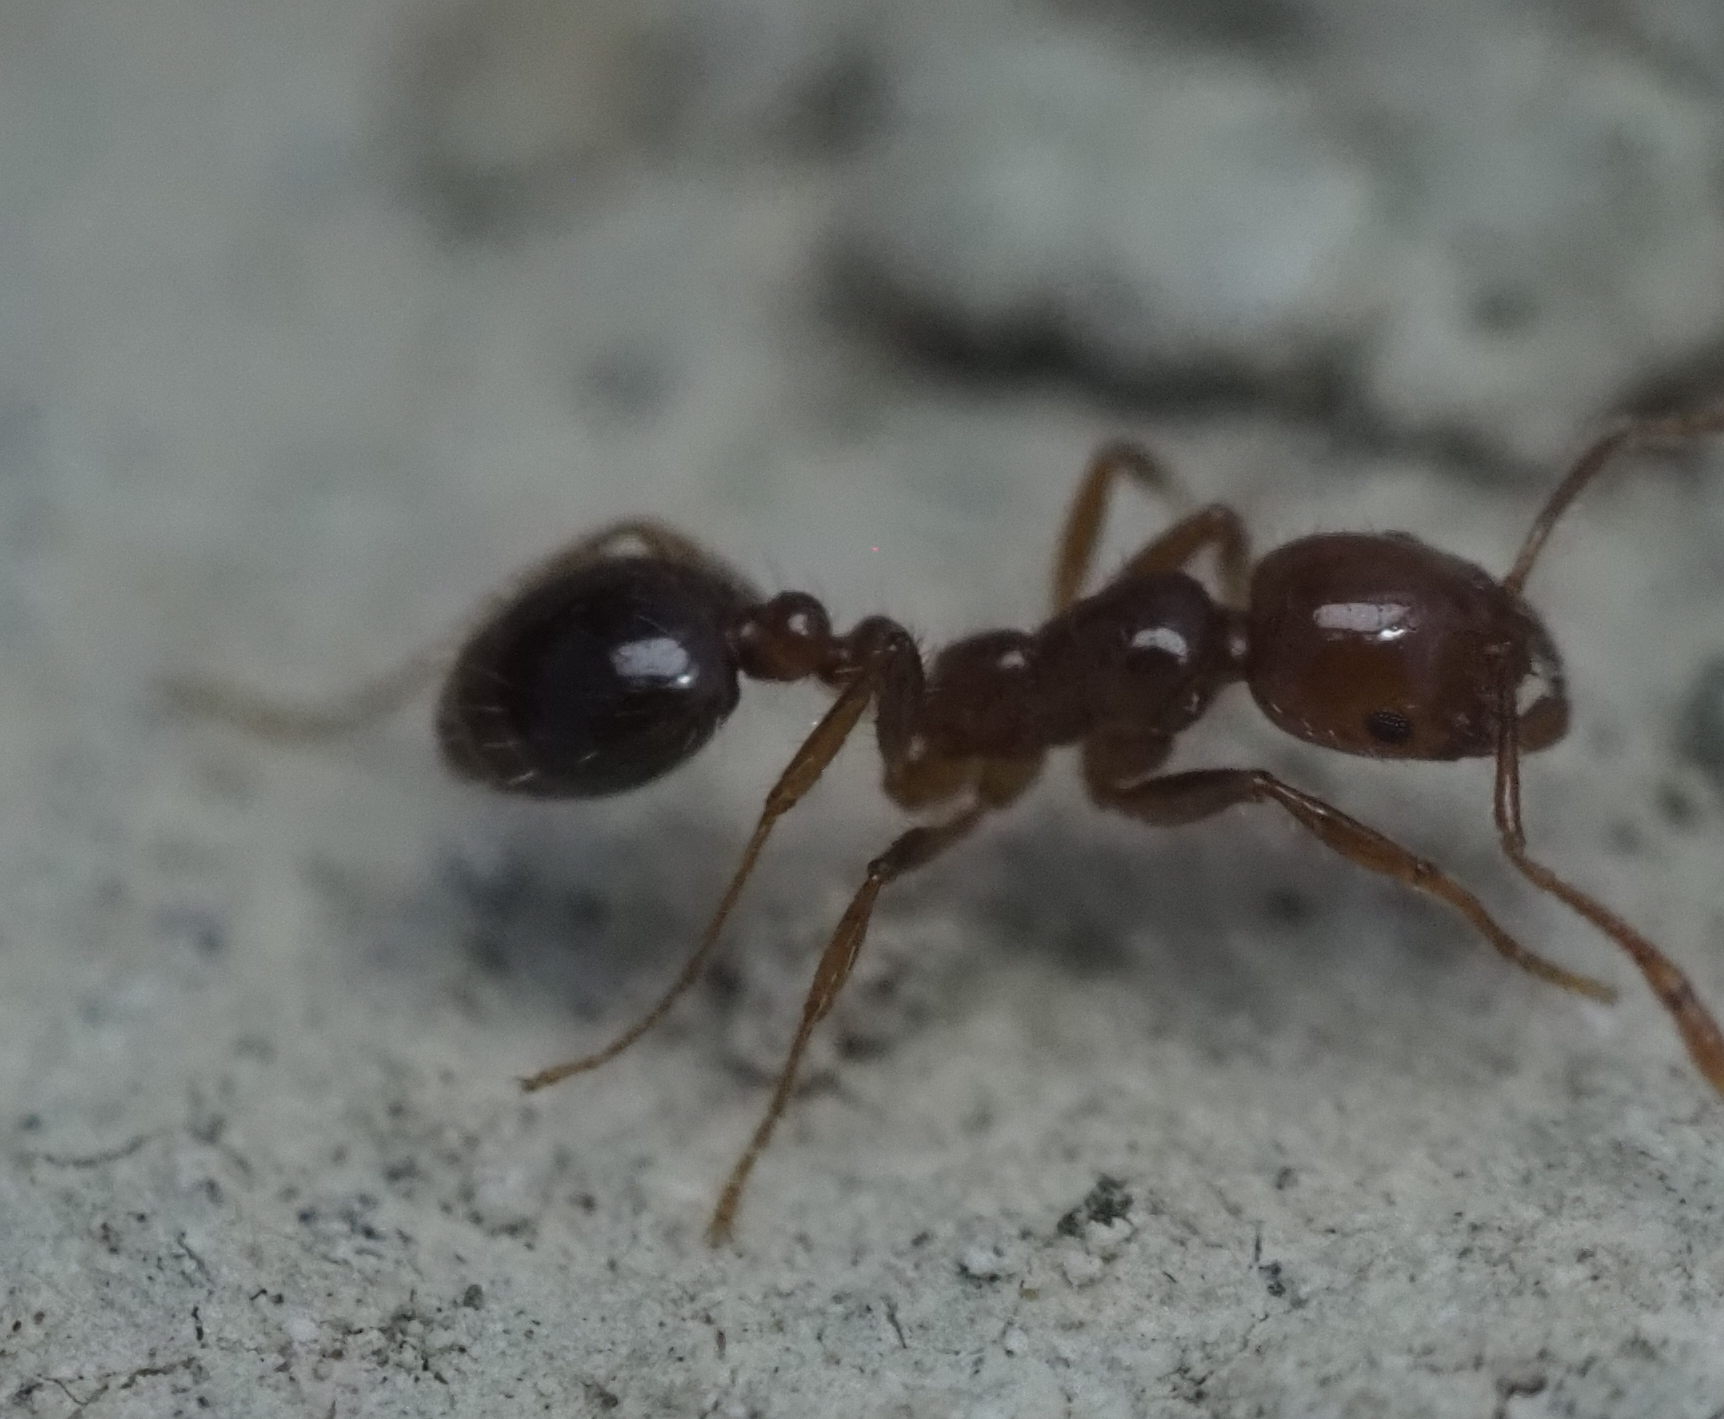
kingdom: Animalia
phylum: Arthropoda
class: Insecta
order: Hymenoptera
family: Formicidae
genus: Solenopsis
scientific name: Solenopsis invicta
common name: Red imported fire ant
